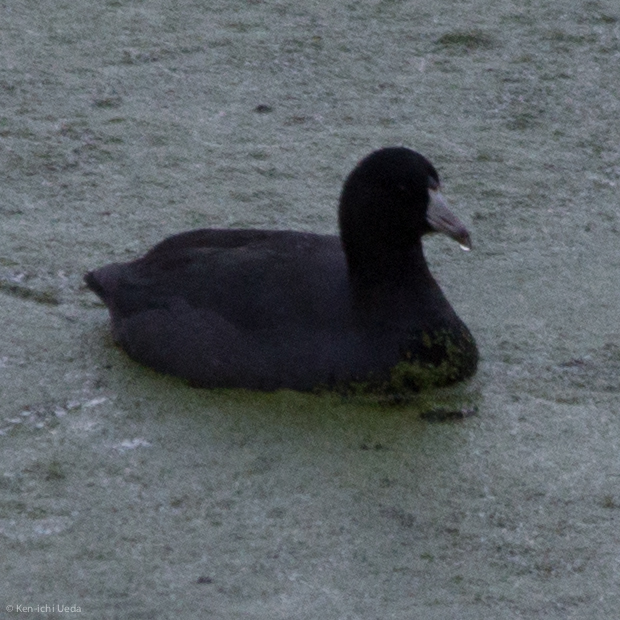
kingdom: Animalia
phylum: Chordata
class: Aves
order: Gruiformes
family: Rallidae
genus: Fulica
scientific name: Fulica americana
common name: American coot
